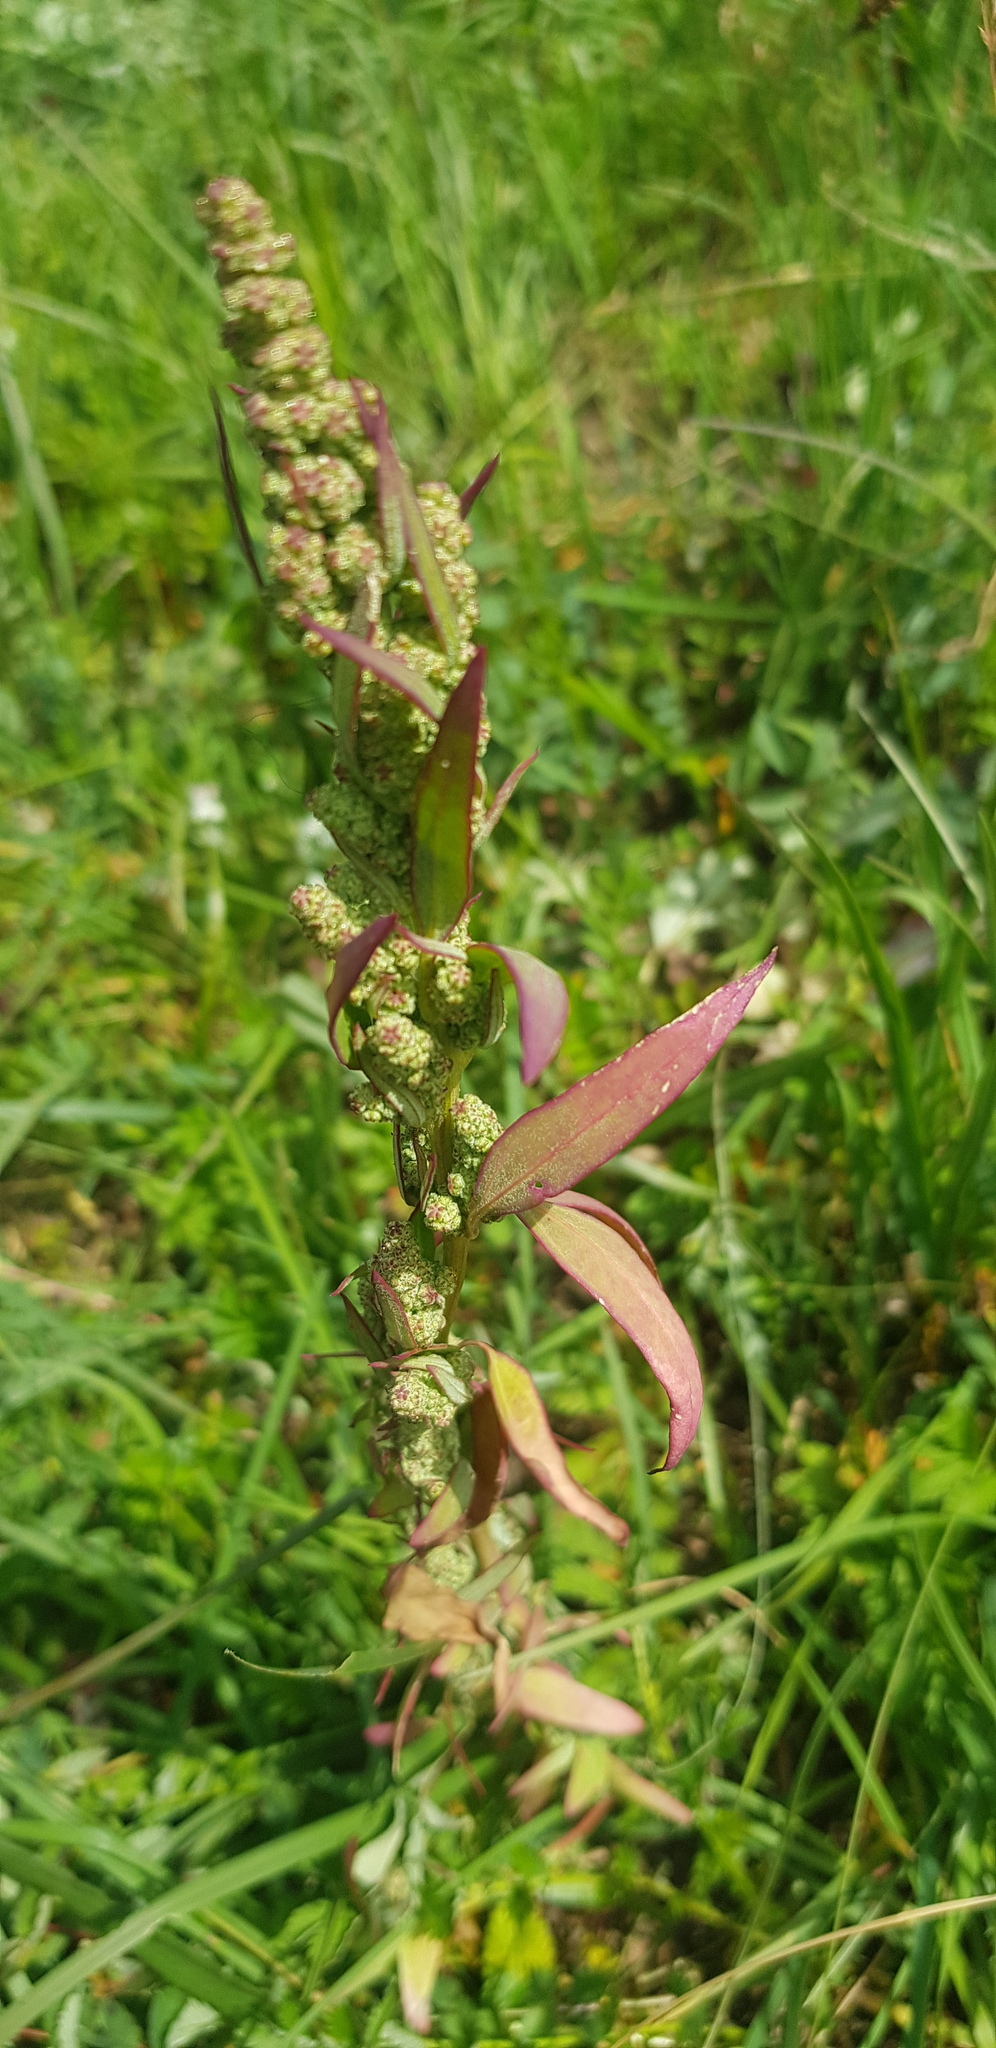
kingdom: Plantae
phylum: Tracheophyta
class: Magnoliopsida
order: Caryophyllales
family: Amaranthaceae
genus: Chenopodium
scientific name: Chenopodium album
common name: Fat-hen
